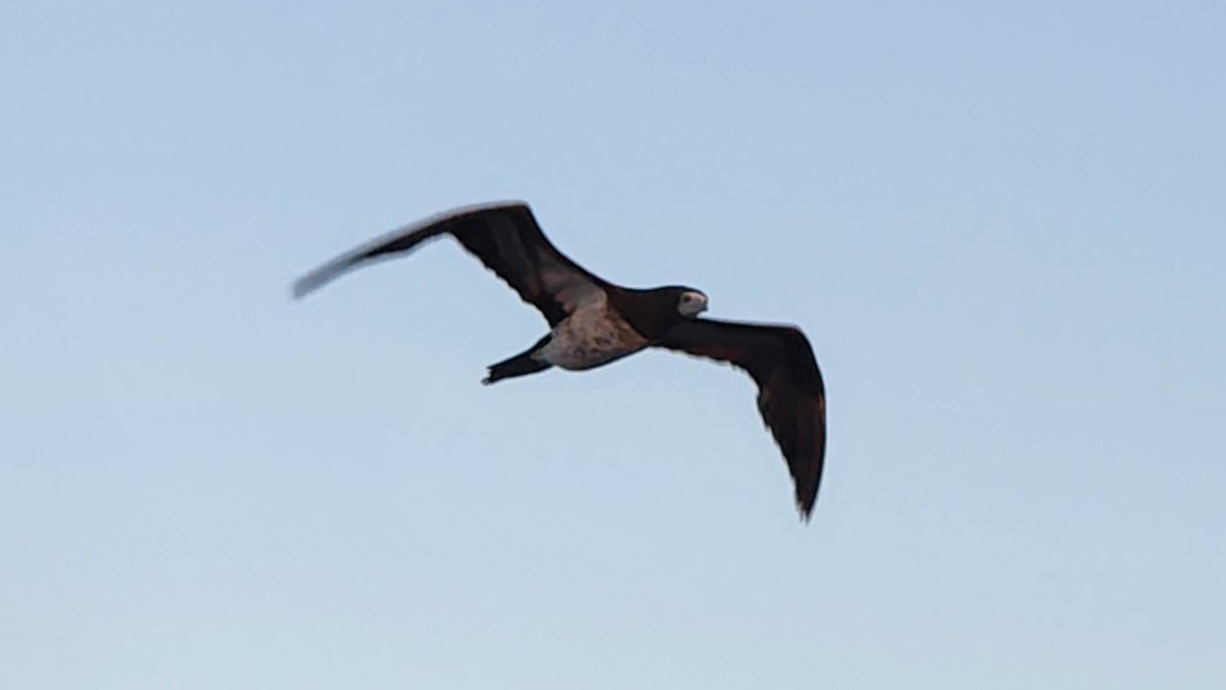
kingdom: Animalia
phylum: Chordata
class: Aves
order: Suliformes
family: Sulidae
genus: Sula
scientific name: Sula leucogaster
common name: Brown booby
